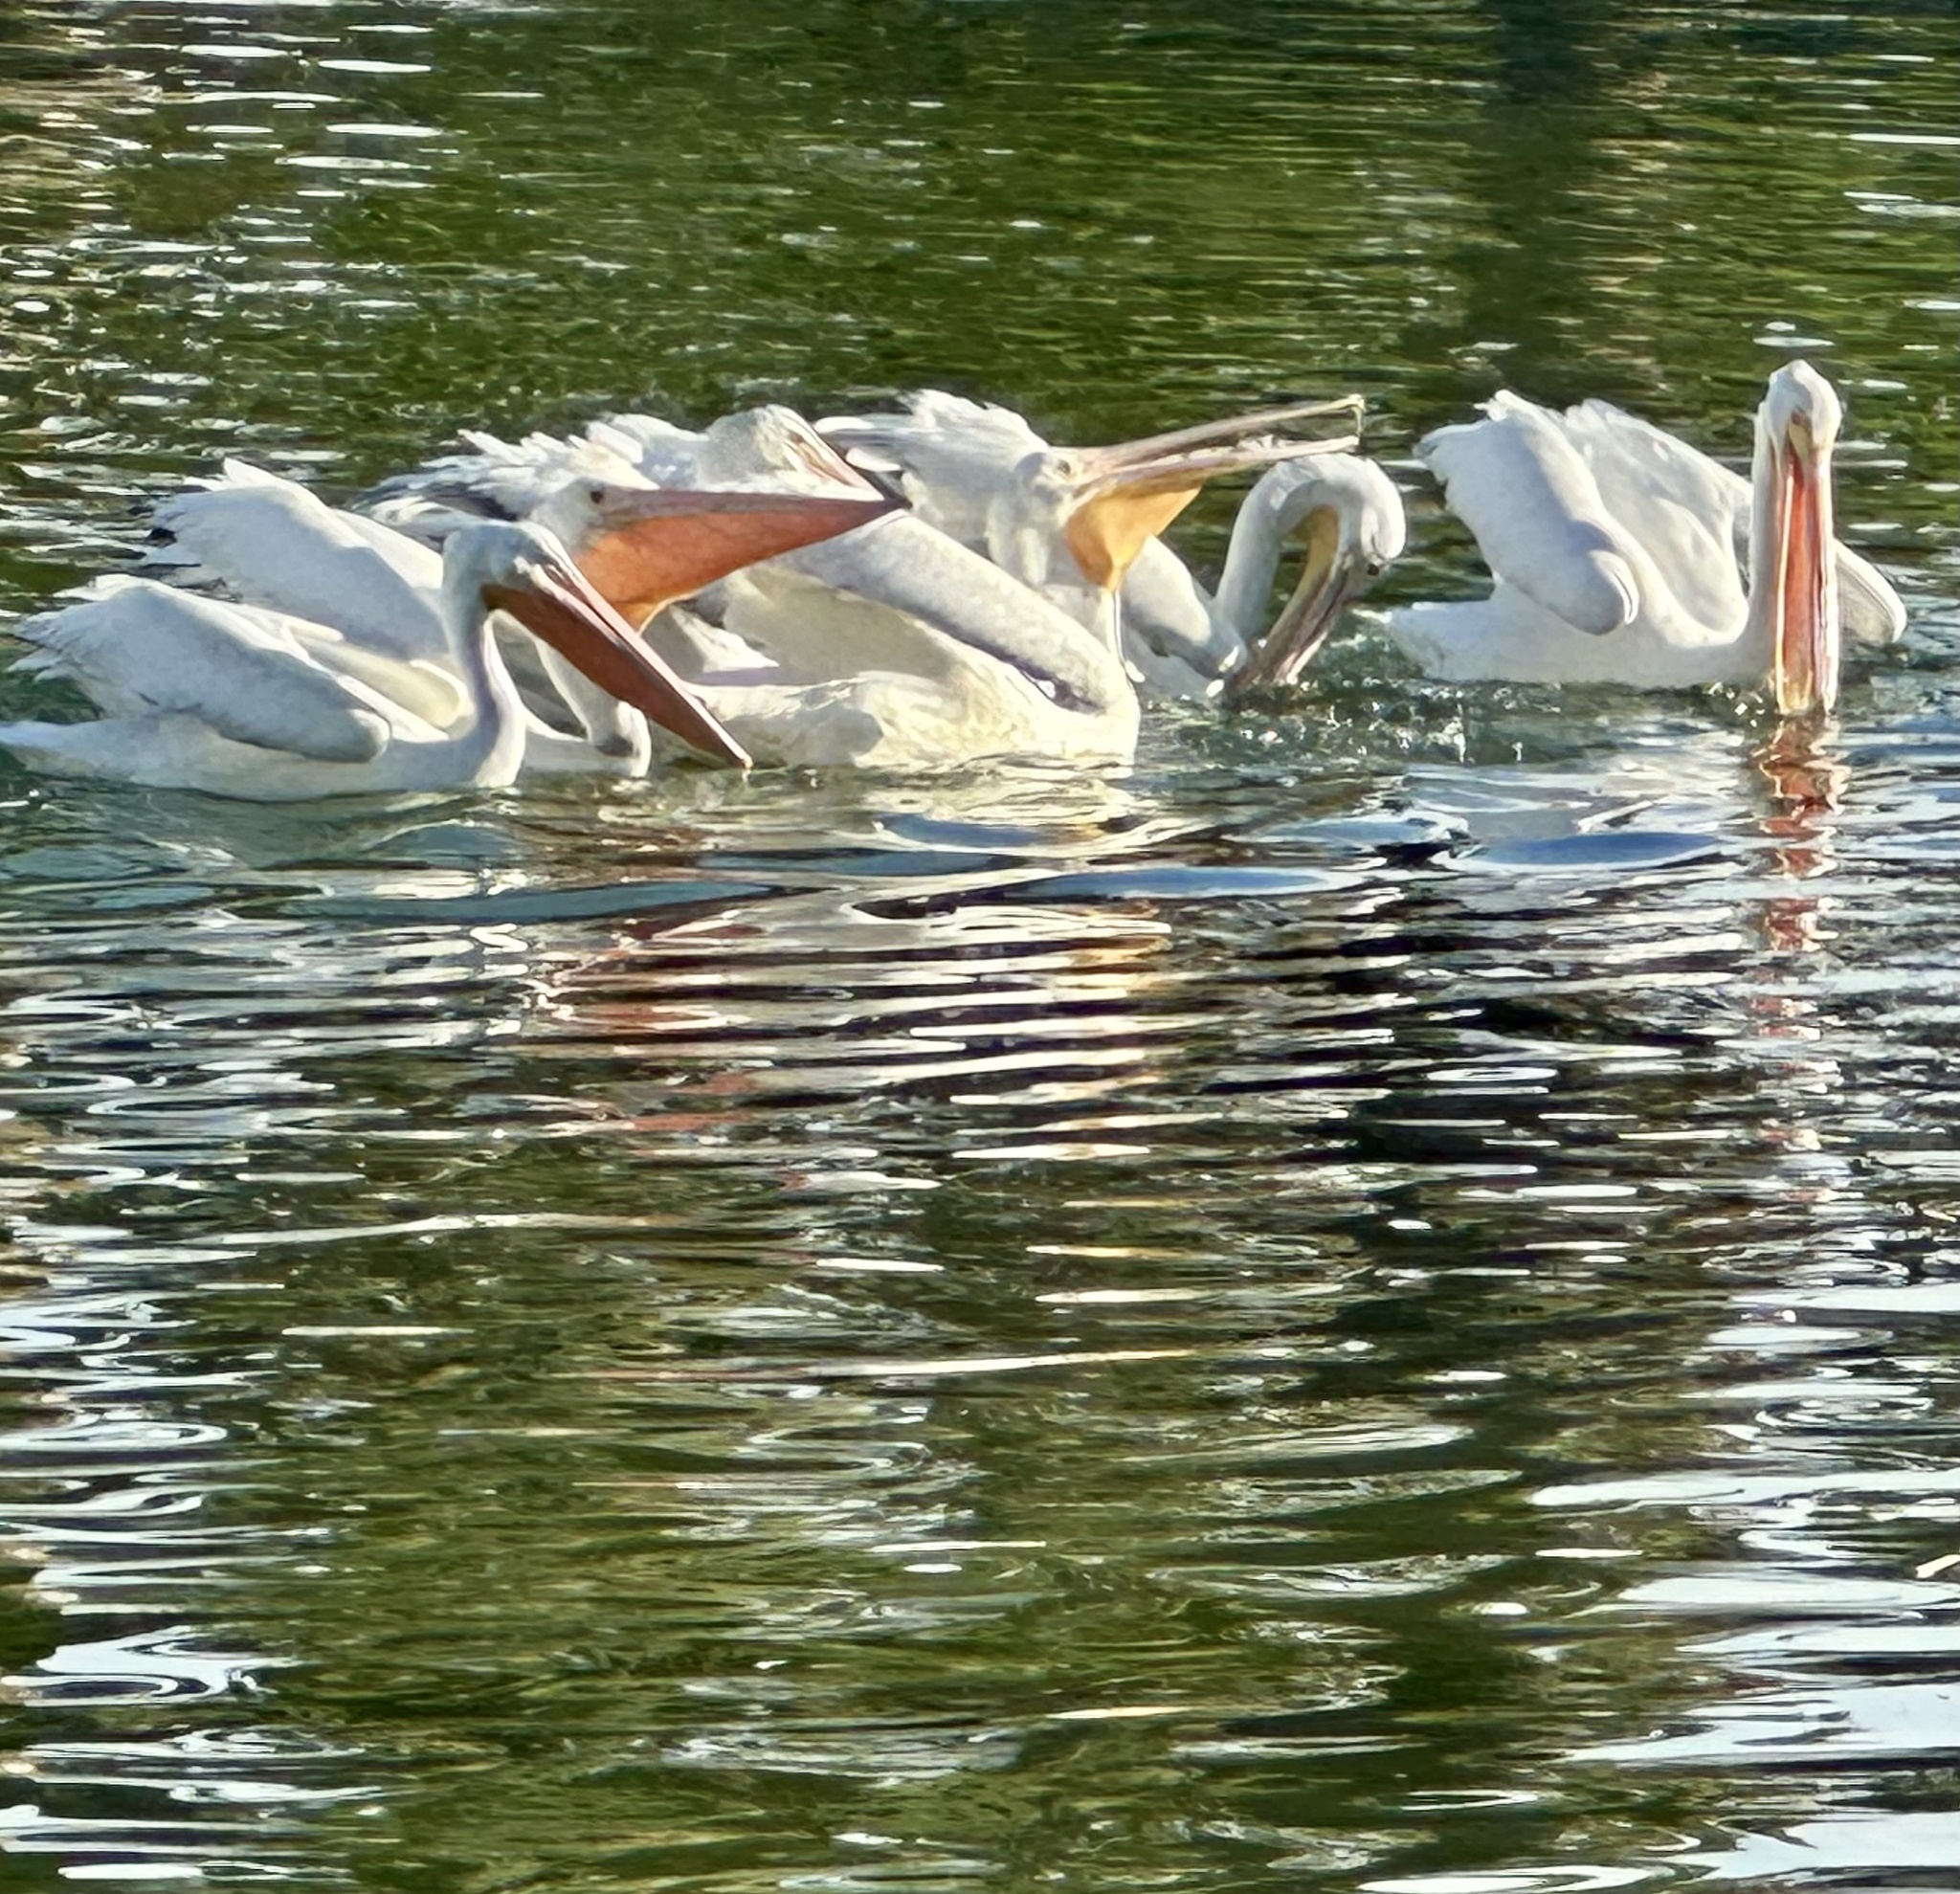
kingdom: Animalia
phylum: Chordata
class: Aves
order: Pelecaniformes
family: Pelecanidae
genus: Pelecanus
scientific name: Pelecanus erythrorhynchos
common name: American white pelican
